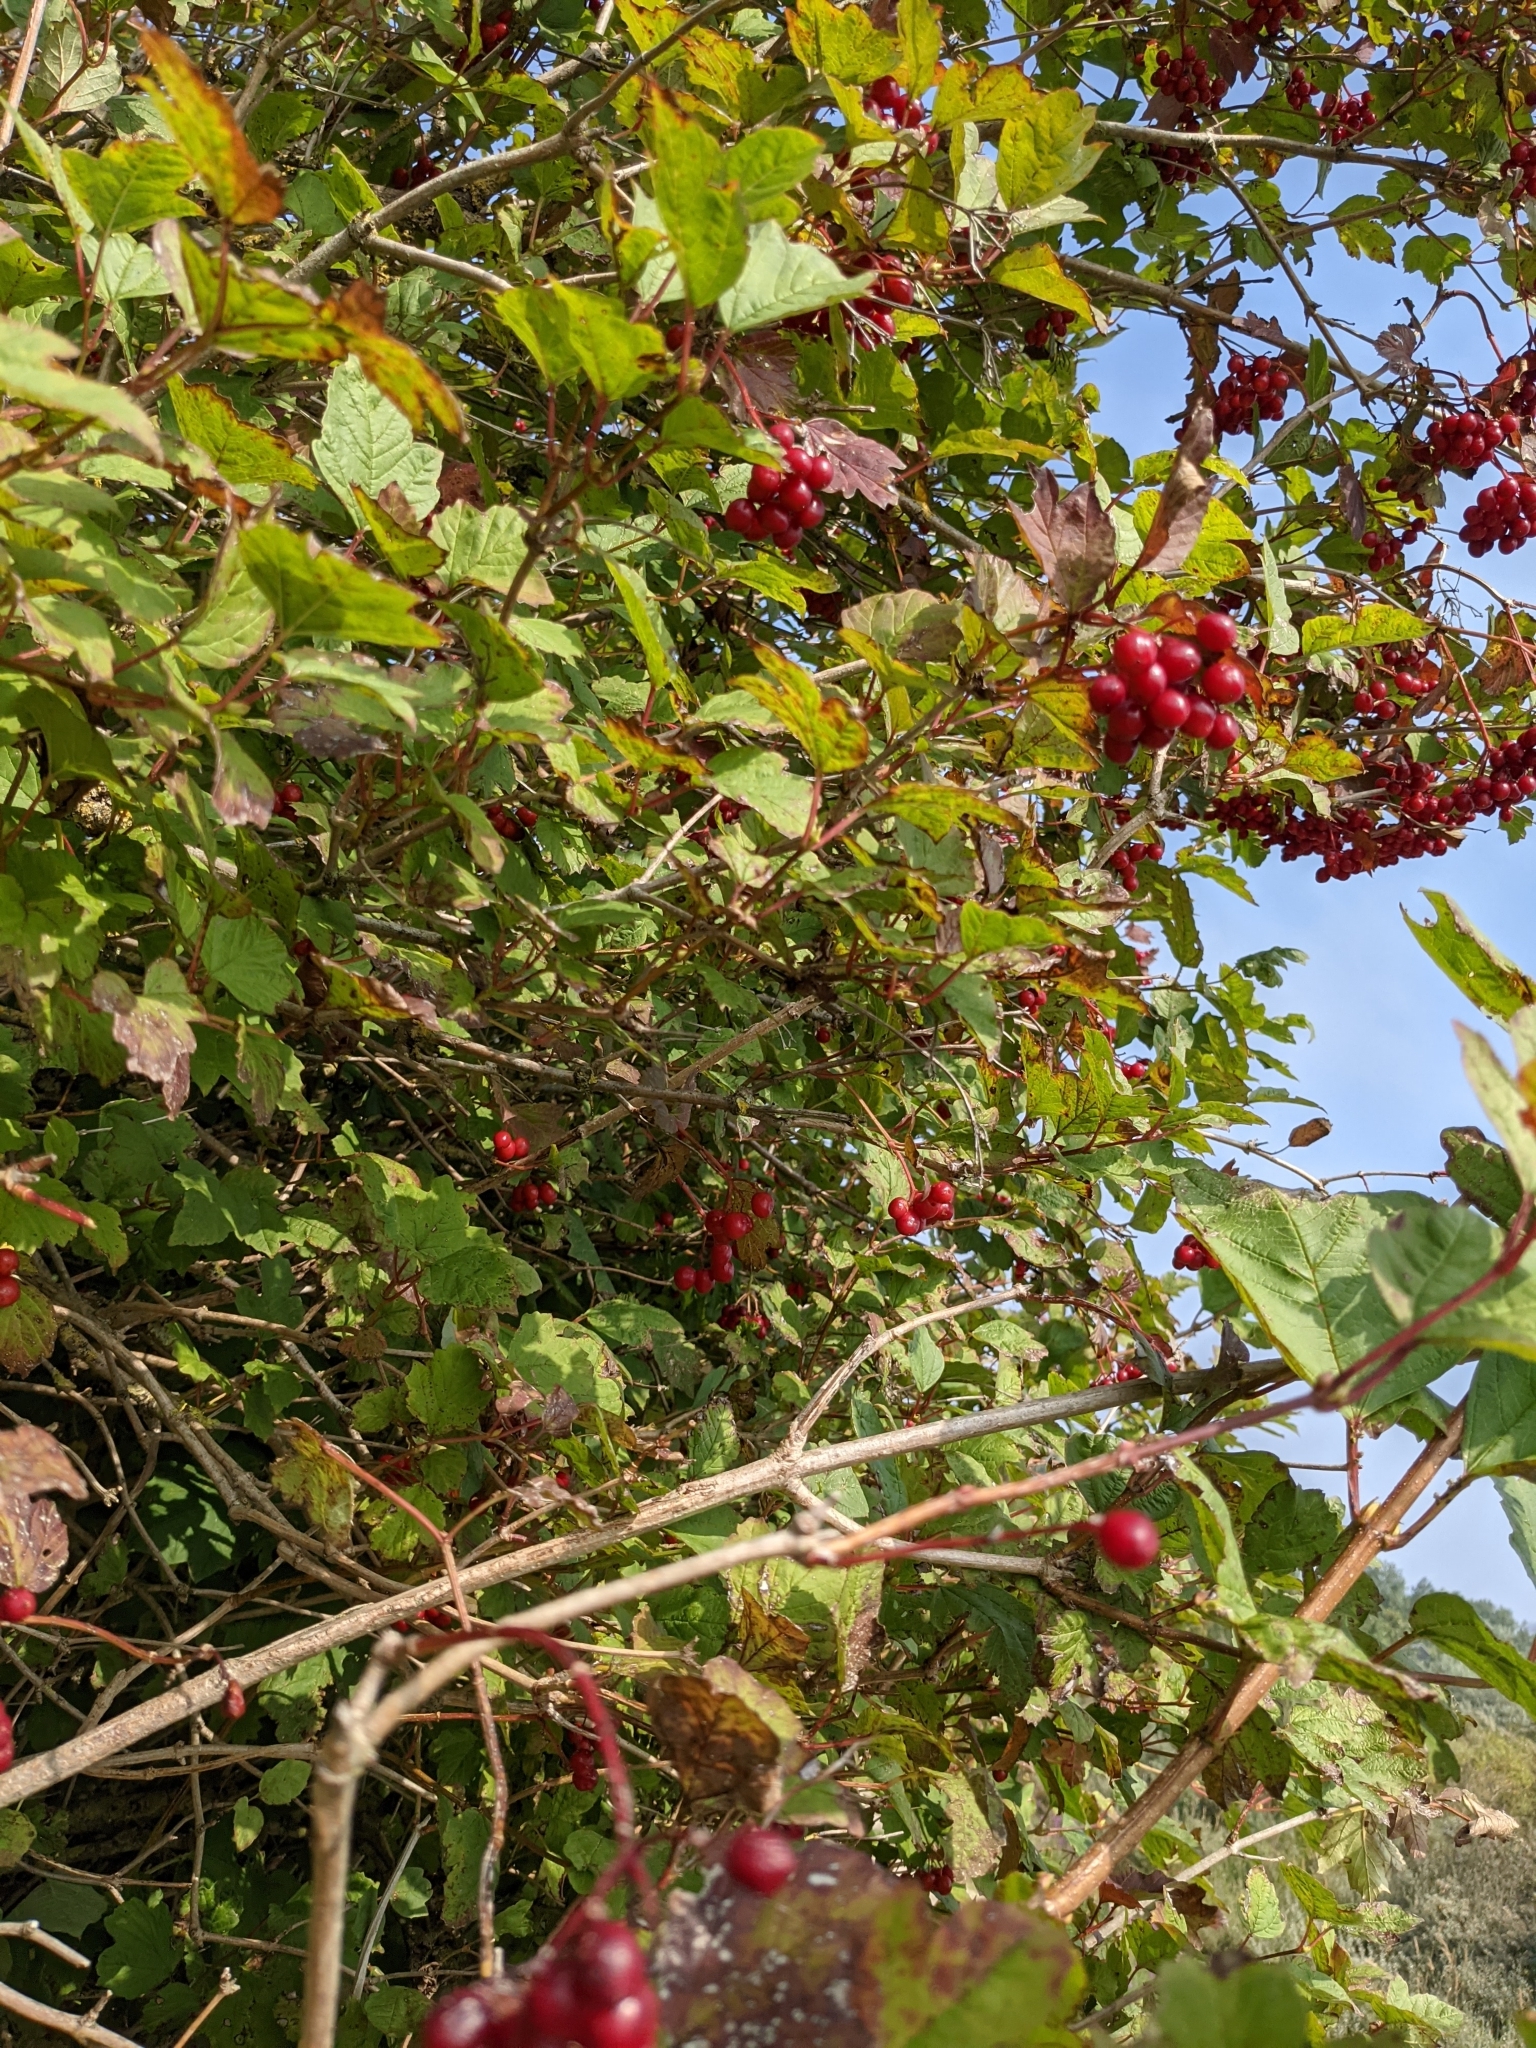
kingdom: Plantae
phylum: Tracheophyta
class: Magnoliopsida
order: Dipsacales
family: Viburnaceae
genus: Viburnum
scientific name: Viburnum opulus
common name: Guelder-rose
